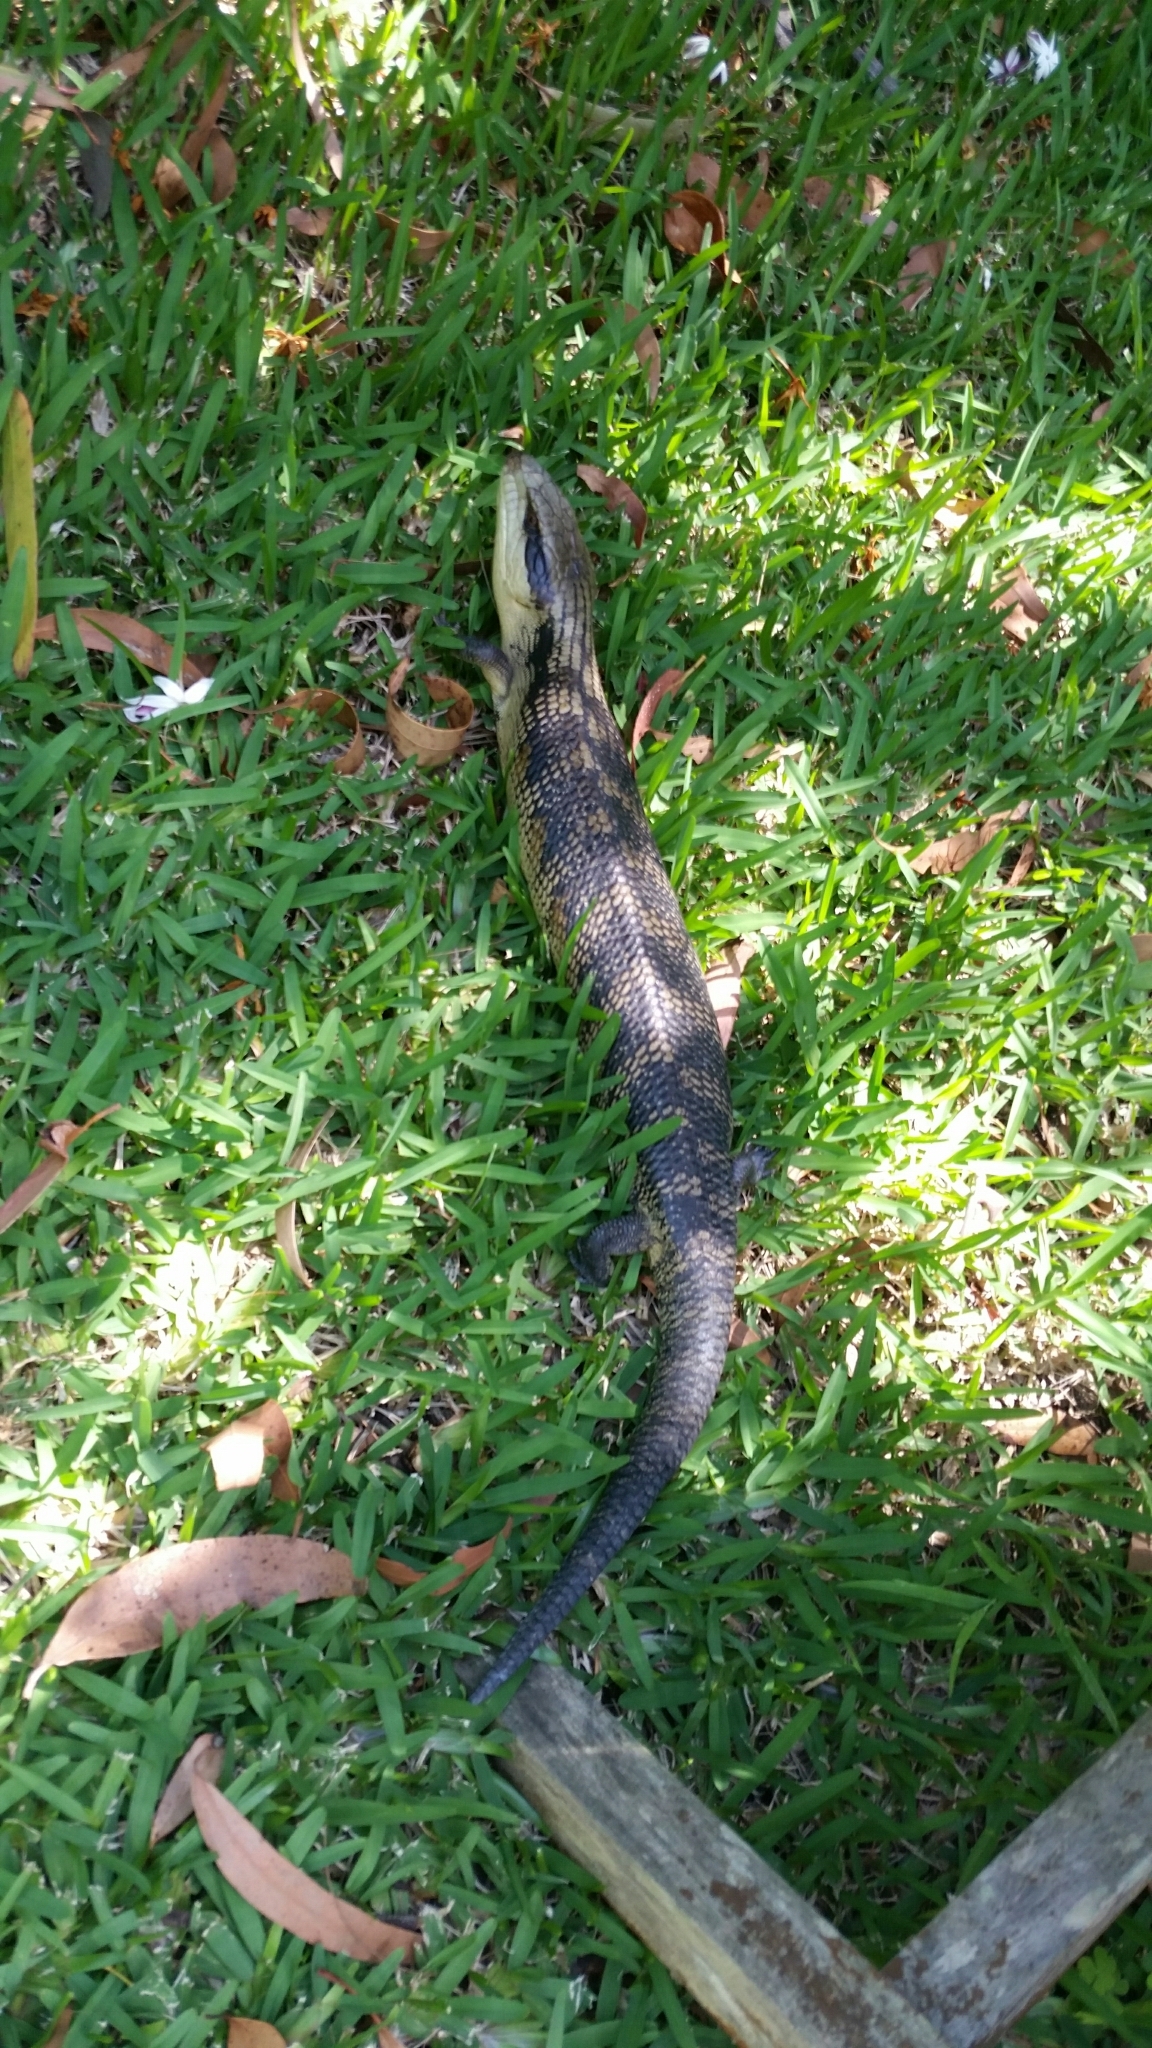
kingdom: Animalia
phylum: Chordata
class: Squamata
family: Scincidae
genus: Tiliqua
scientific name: Tiliqua scincoides
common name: Common bluetongue
